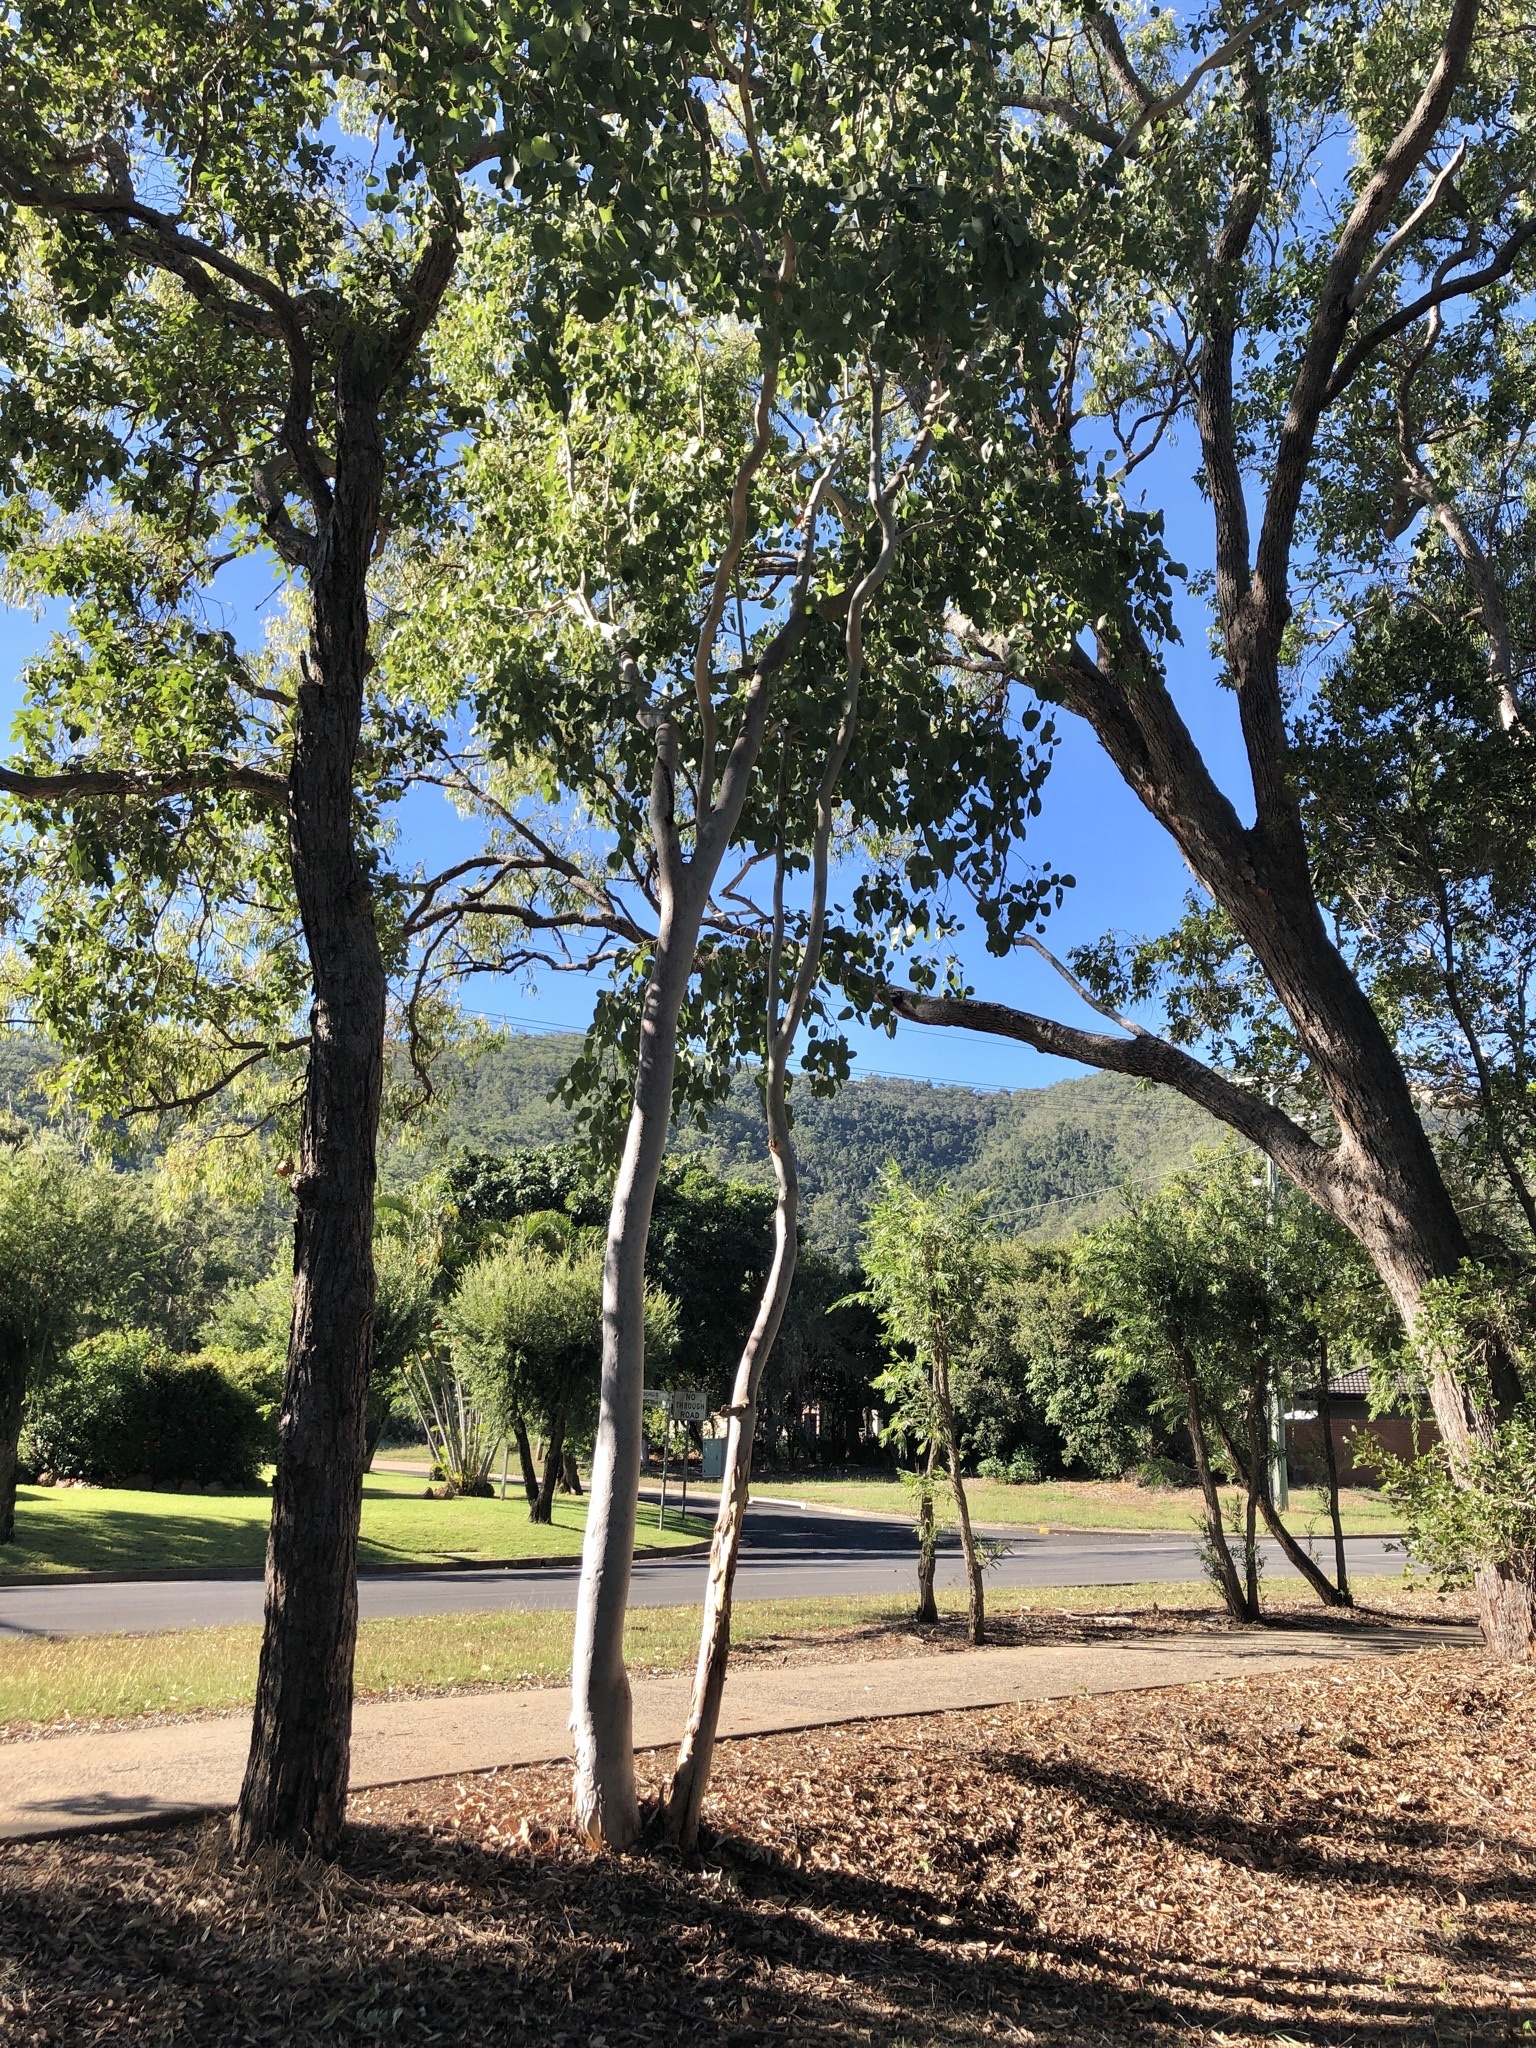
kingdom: Plantae
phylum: Tracheophyta
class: Magnoliopsida
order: Myrtales
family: Myrtaceae
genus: Eucalyptus
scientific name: Eucalyptus platyphylla
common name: Poplar-gum
